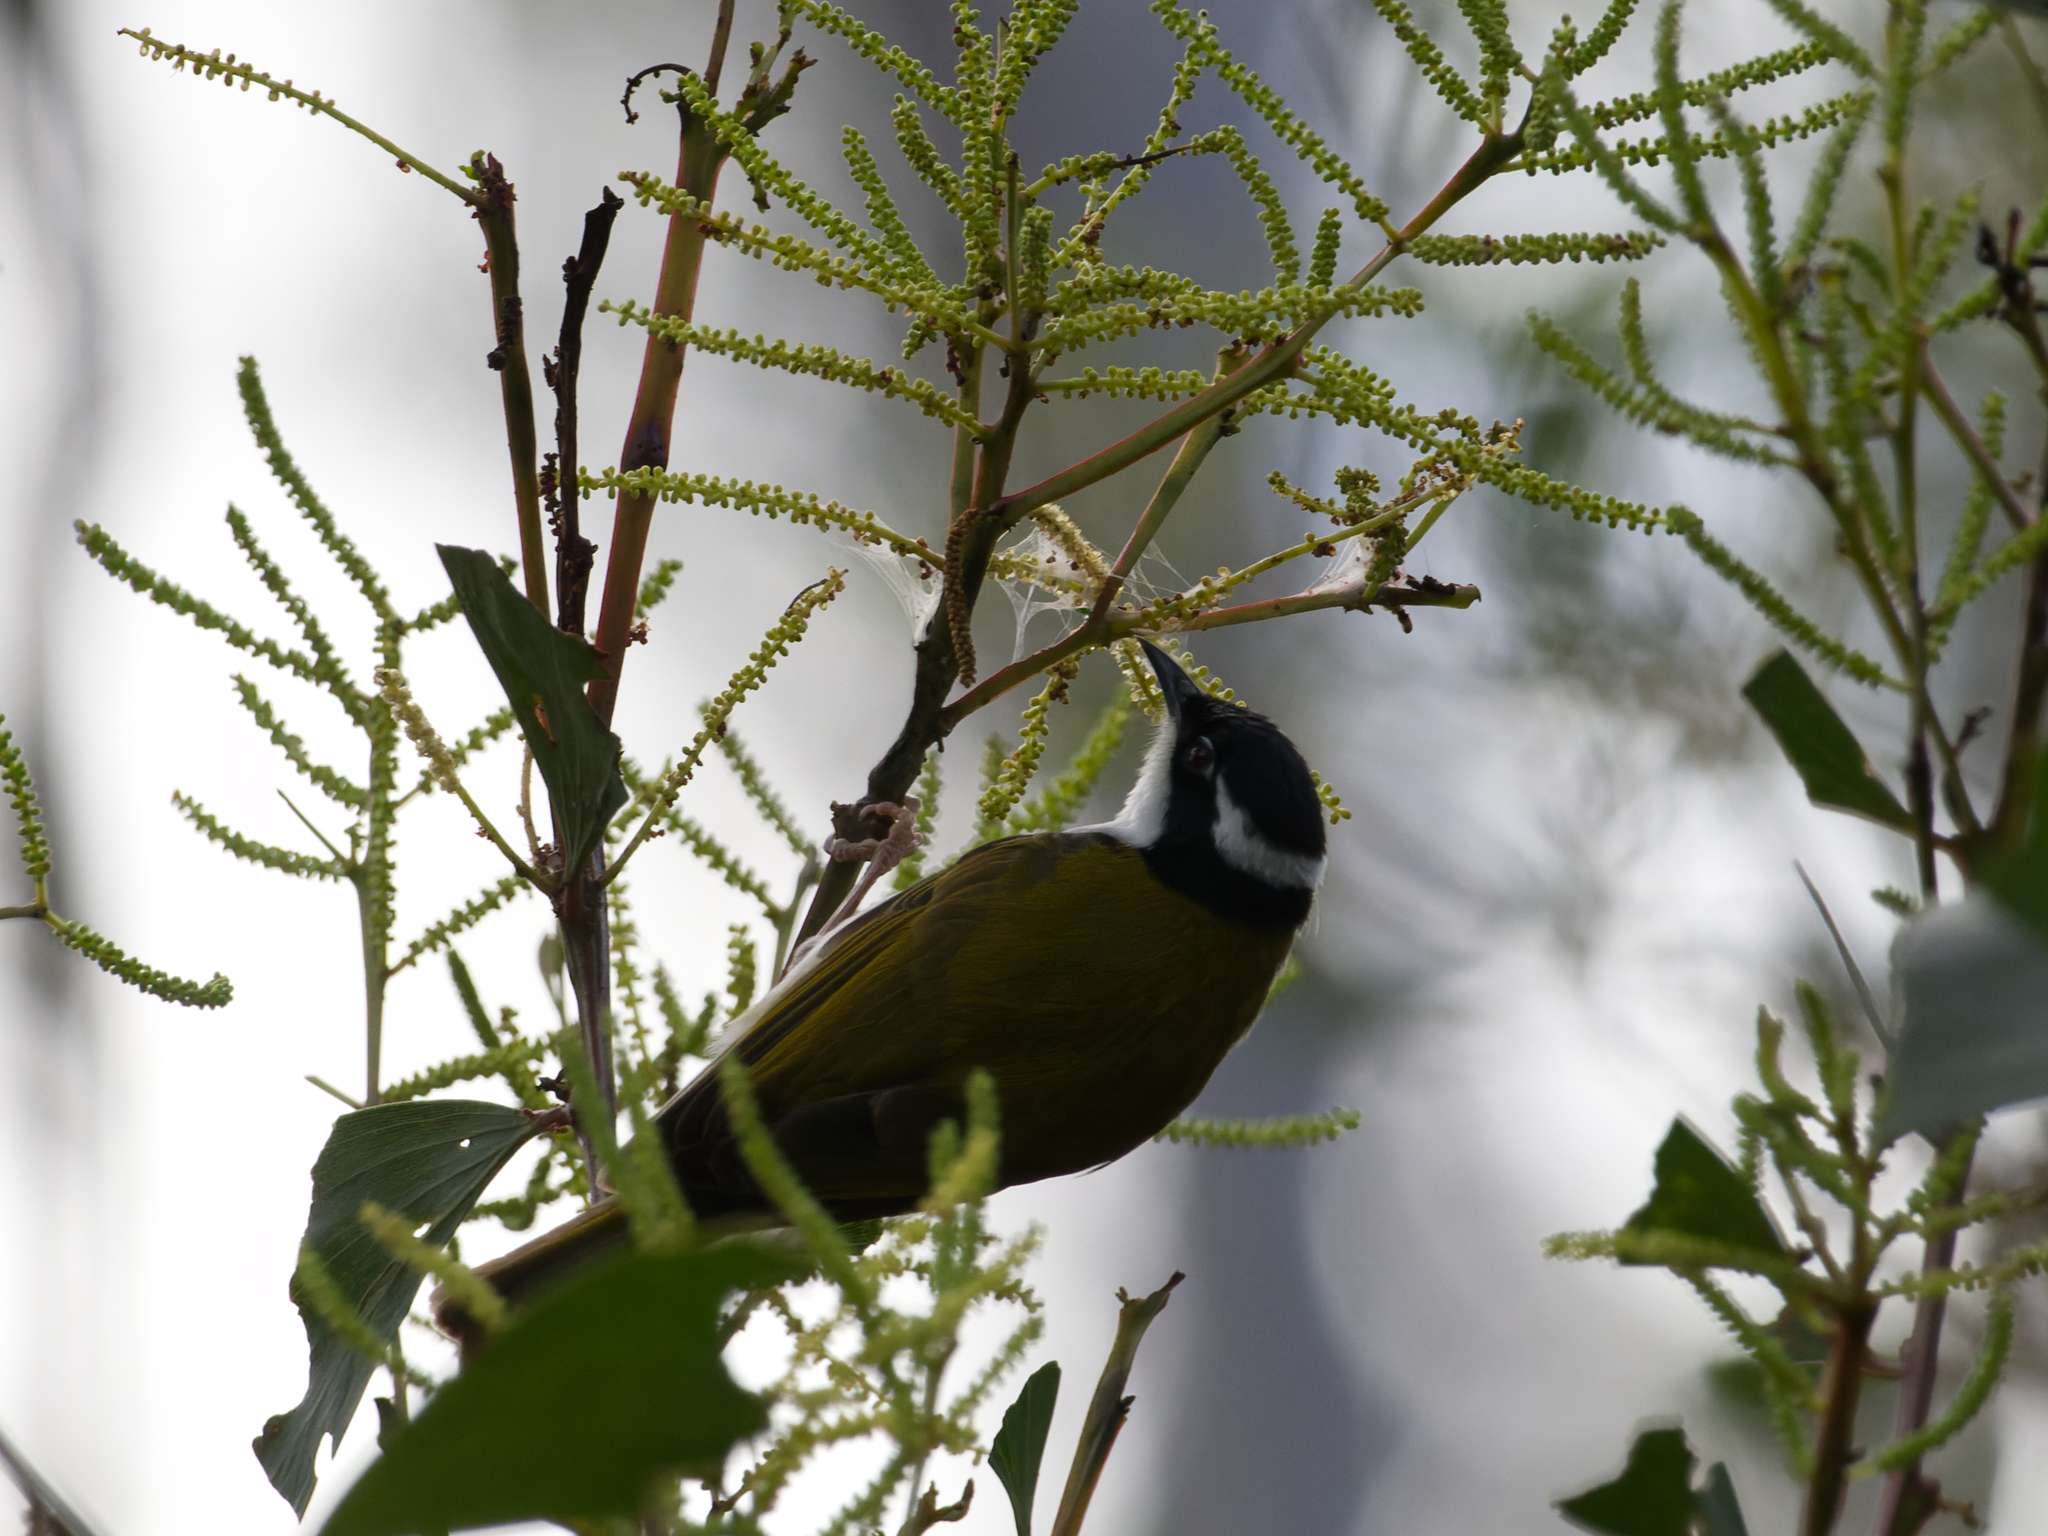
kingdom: Animalia
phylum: Chordata
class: Aves
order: Passeriformes
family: Meliphagidae
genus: Melithreptus
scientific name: Melithreptus albogularis
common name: White-throated honeyeater
